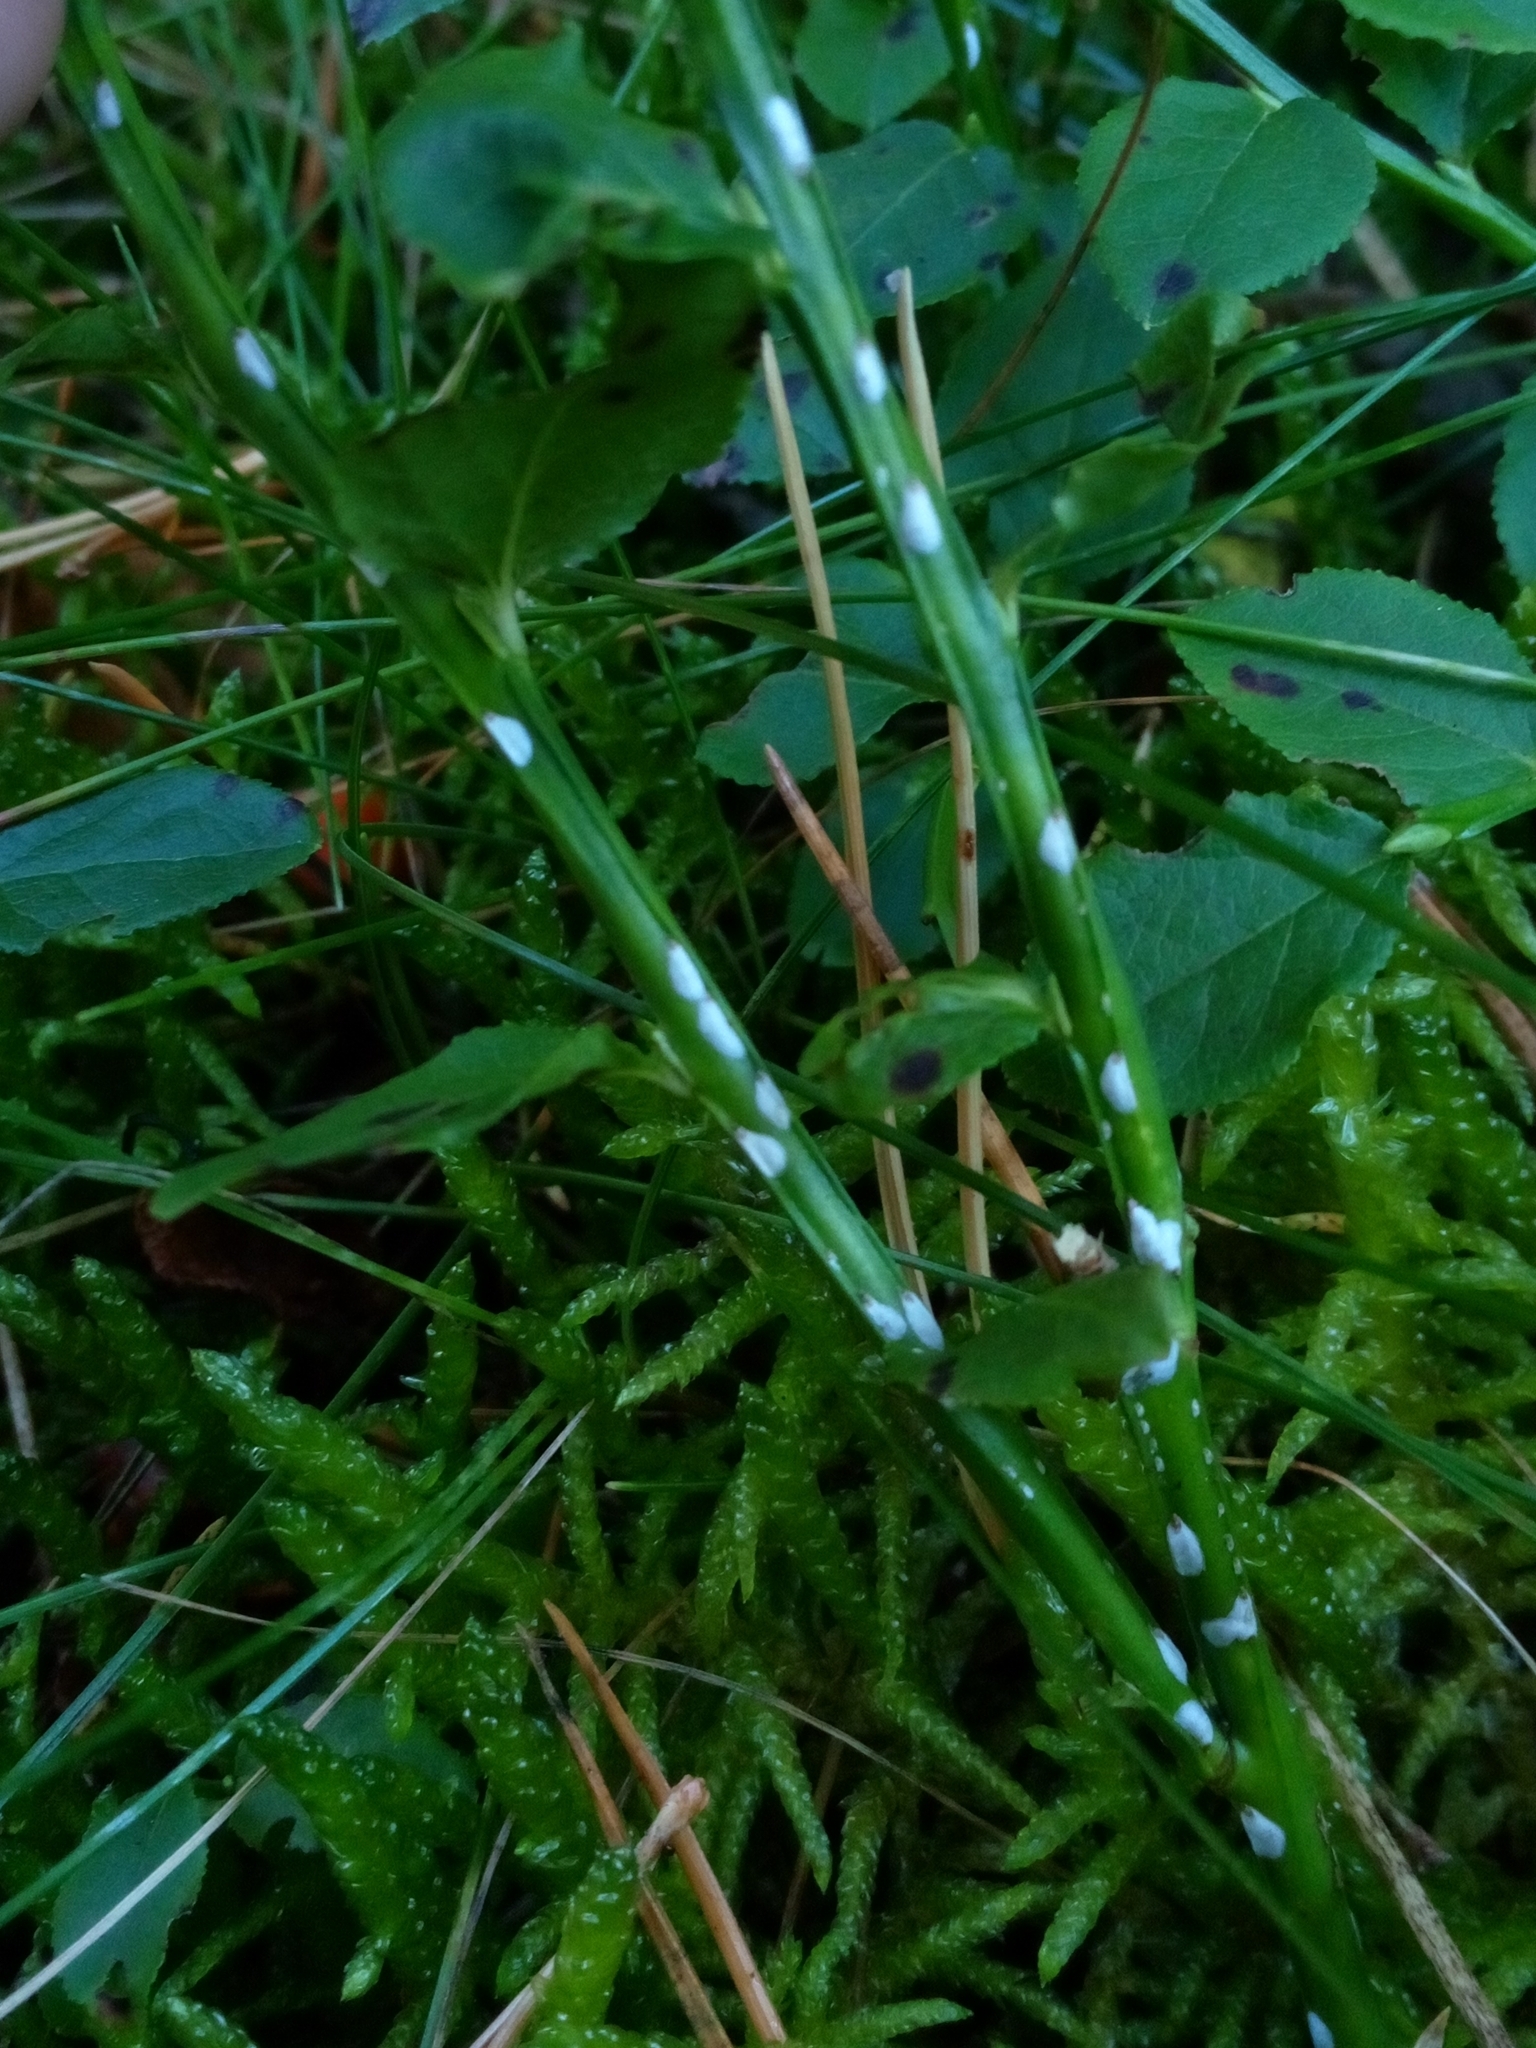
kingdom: Animalia
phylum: Arthropoda
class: Insecta
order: Hemiptera
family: Diaspididae
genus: Chionaspis
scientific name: Chionaspis salicis
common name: Willow scale
